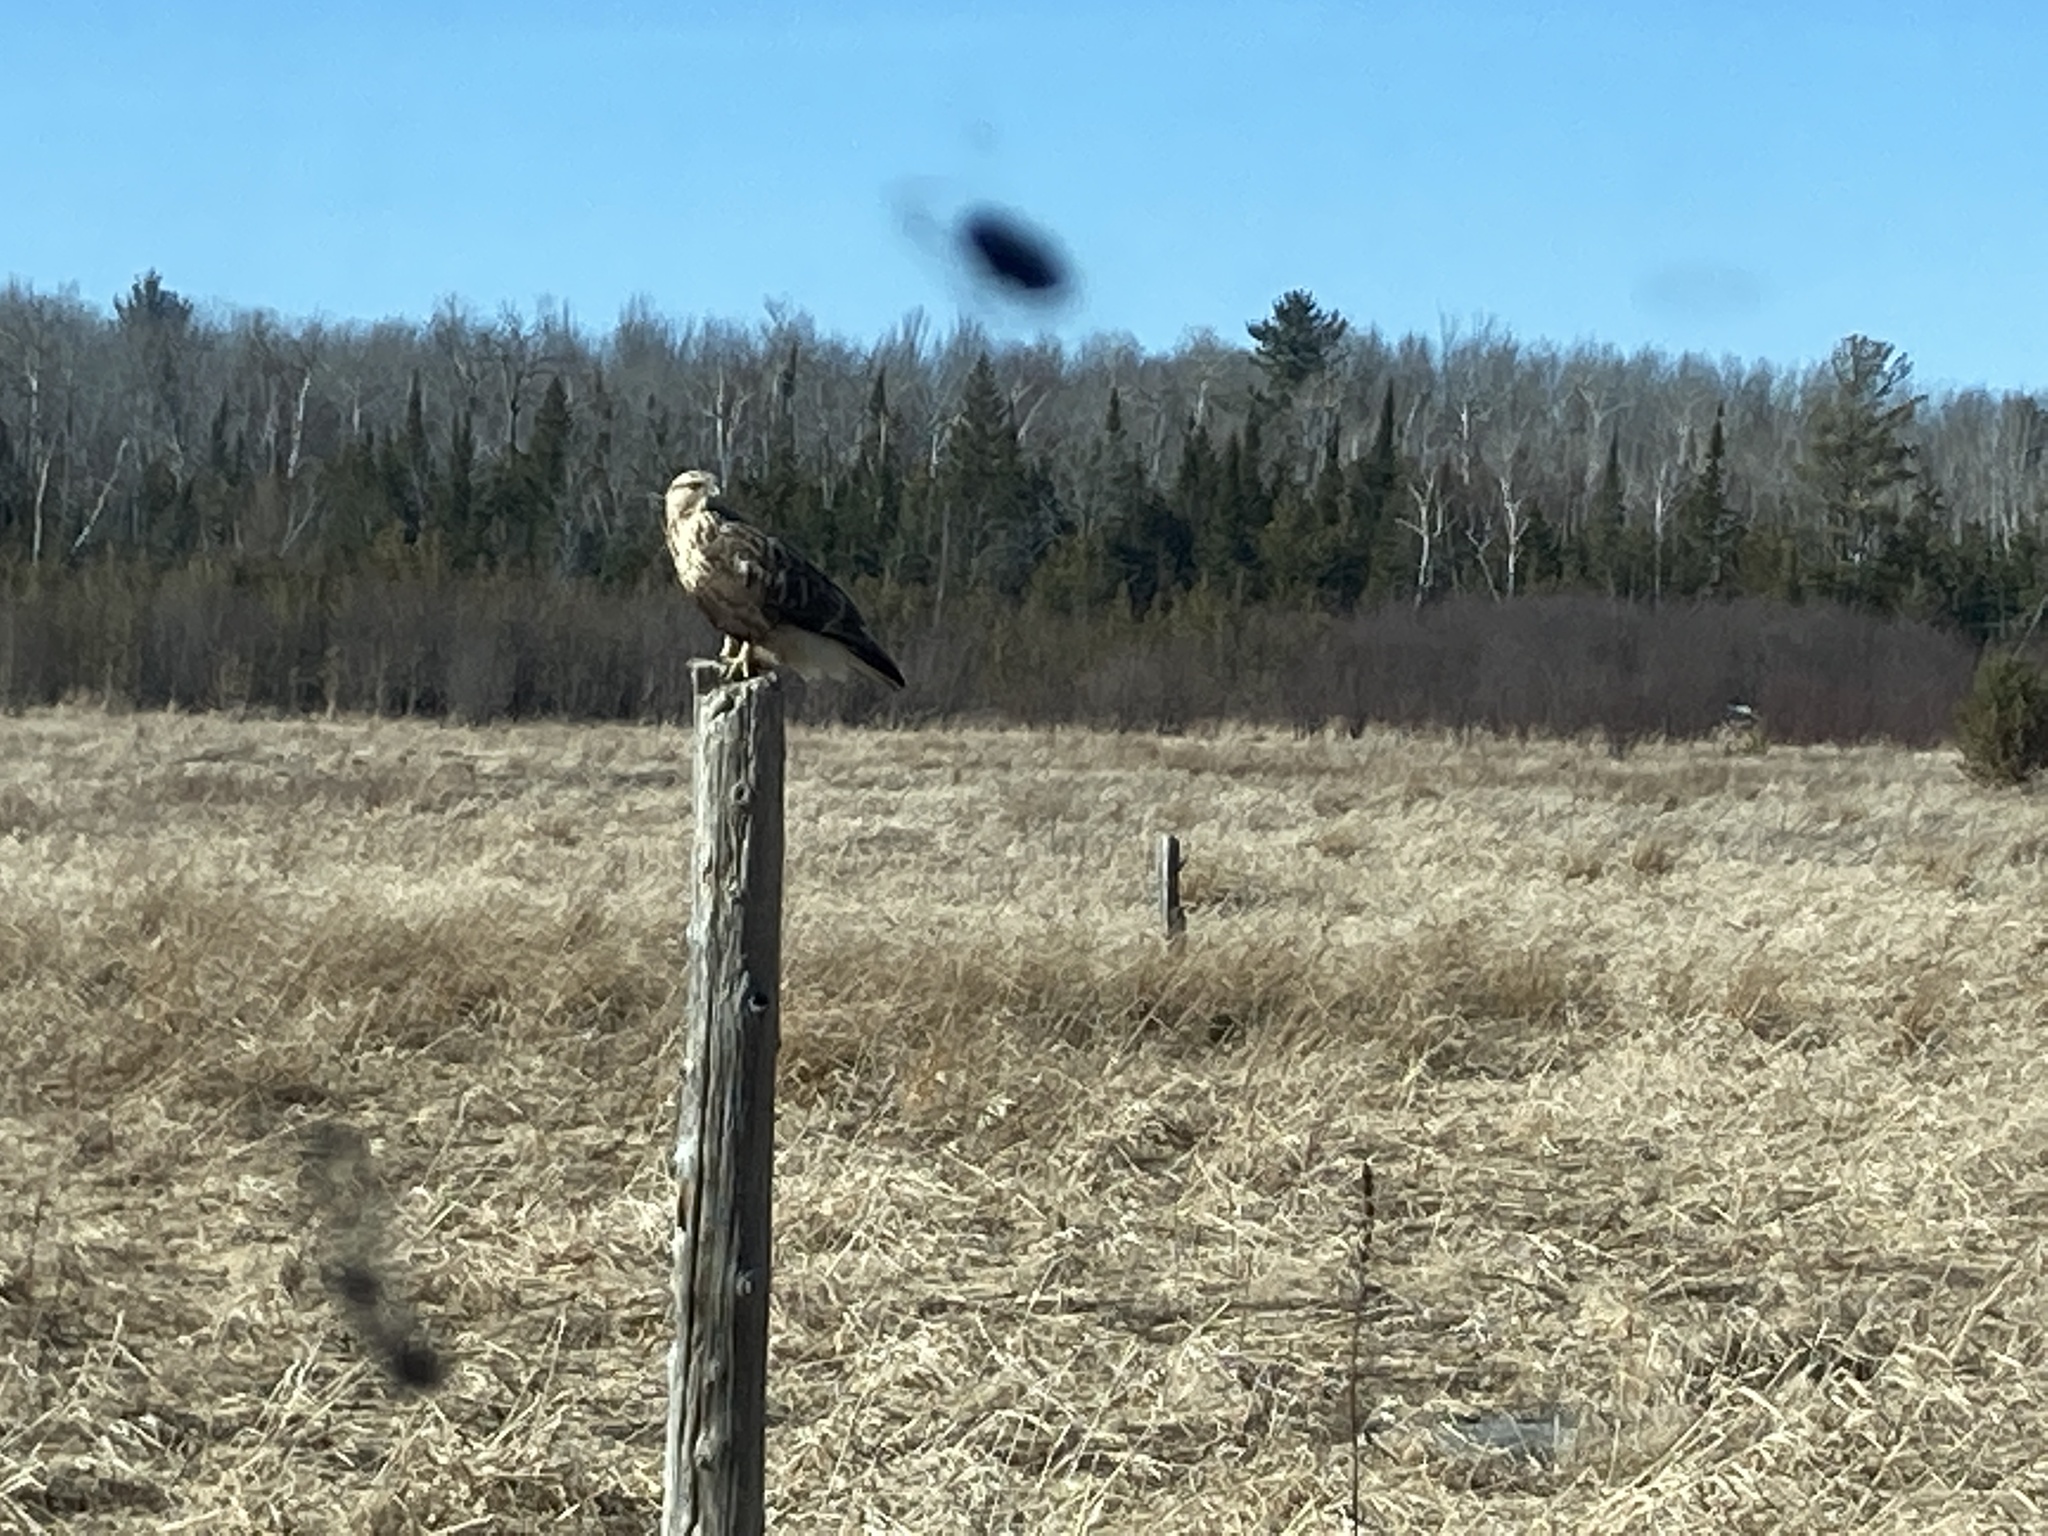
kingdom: Animalia
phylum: Chordata
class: Aves
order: Accipitriformes
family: Accipitridae
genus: Buteo
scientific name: Buteo lagopus
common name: Rough-legged buzzard
